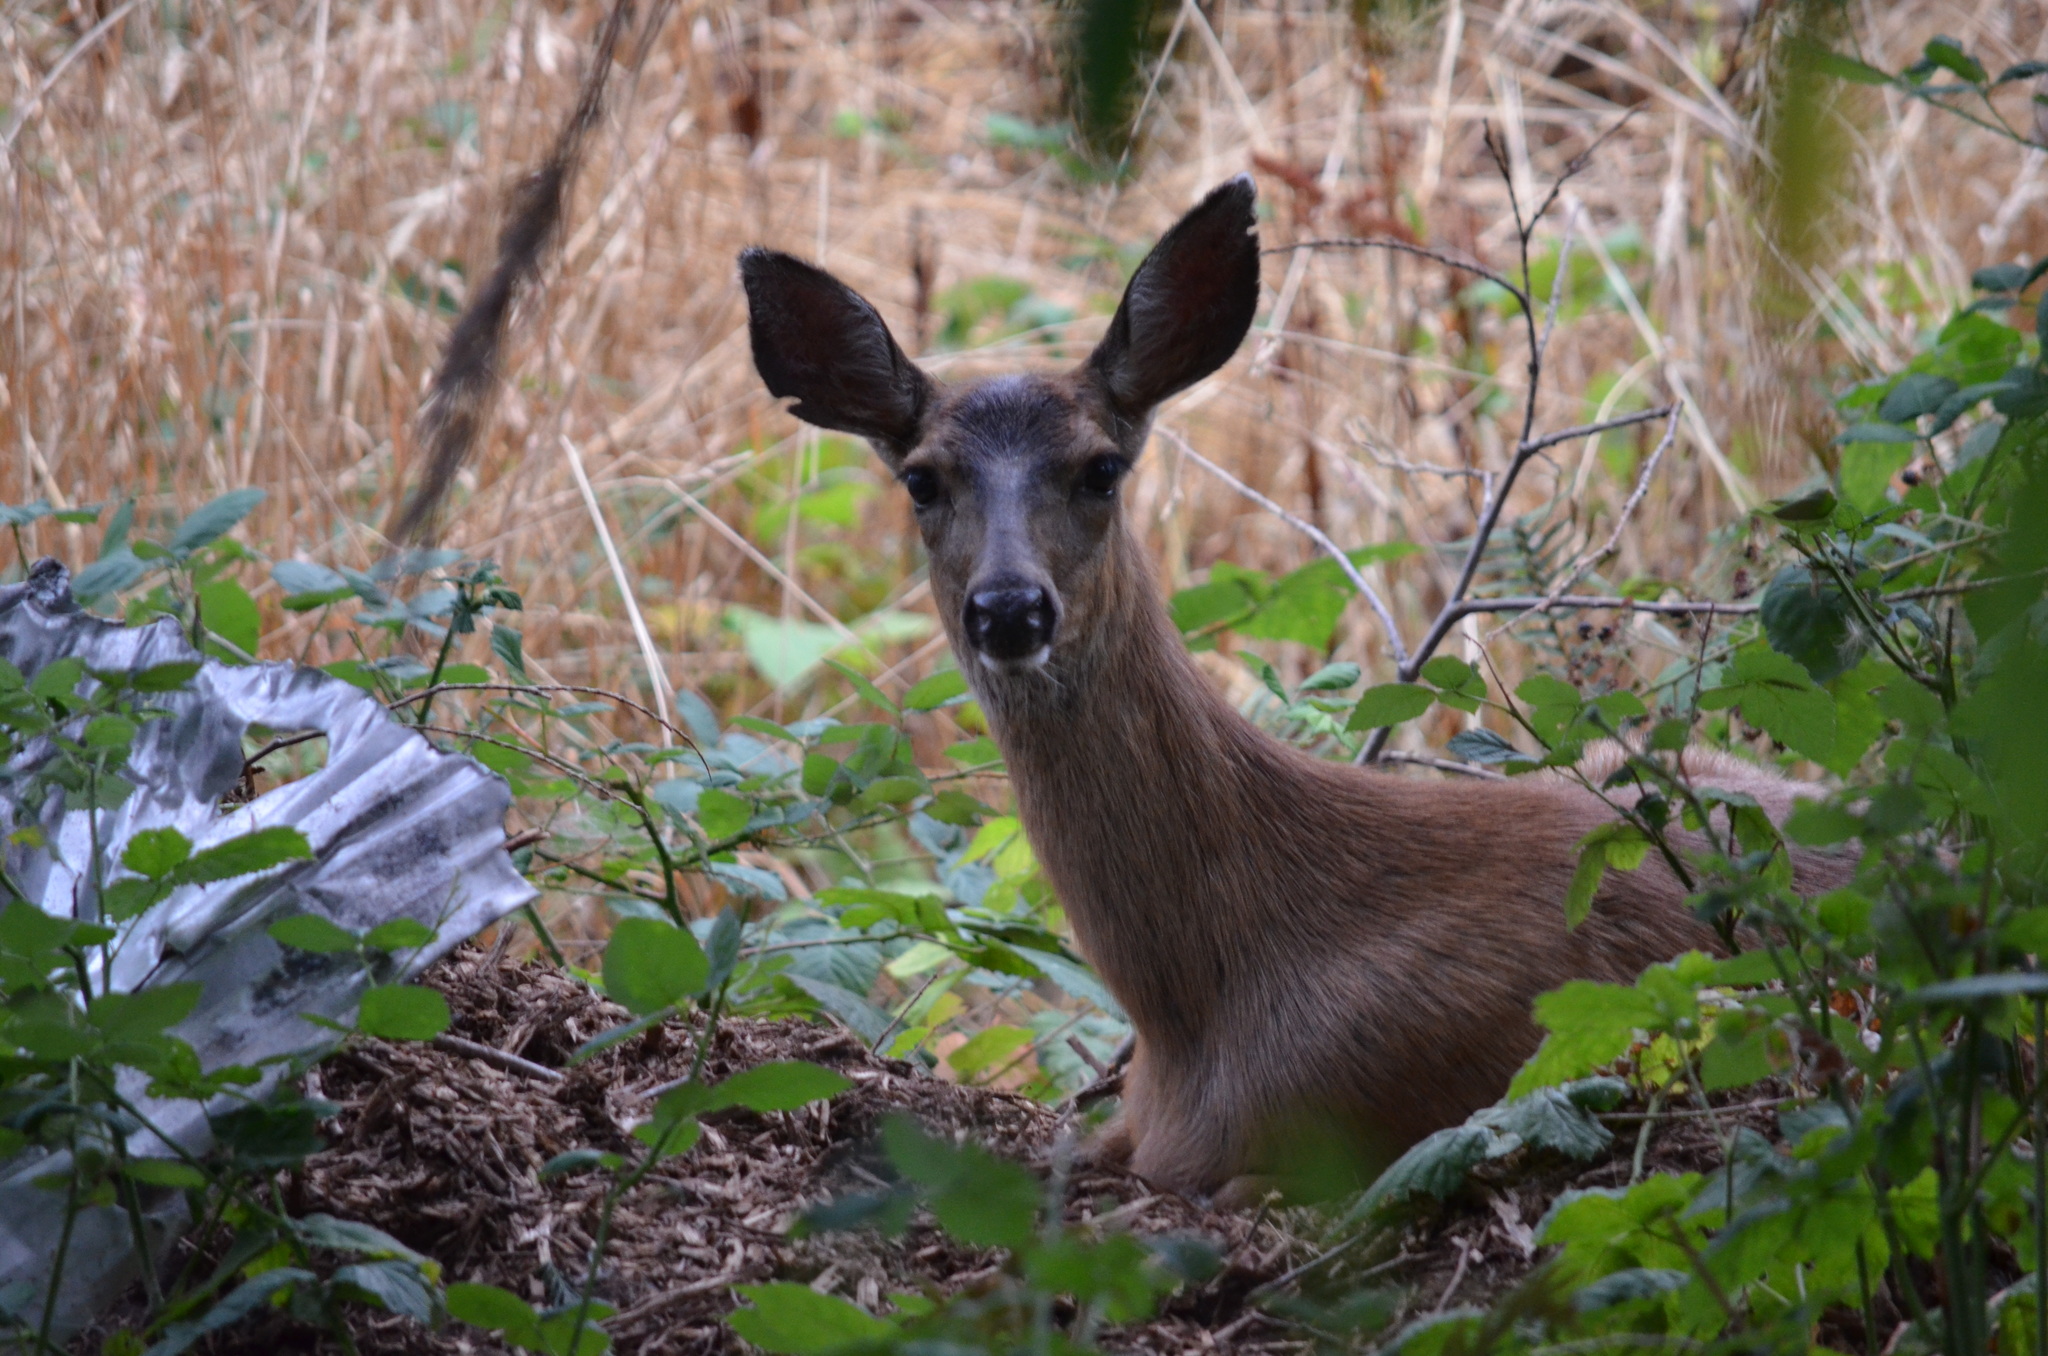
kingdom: Animalia
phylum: Chordata
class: Mammalia
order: Artiodactyla
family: Cervidae
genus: Odocoileus
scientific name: Odocoileus hemionus
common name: Mule deer
